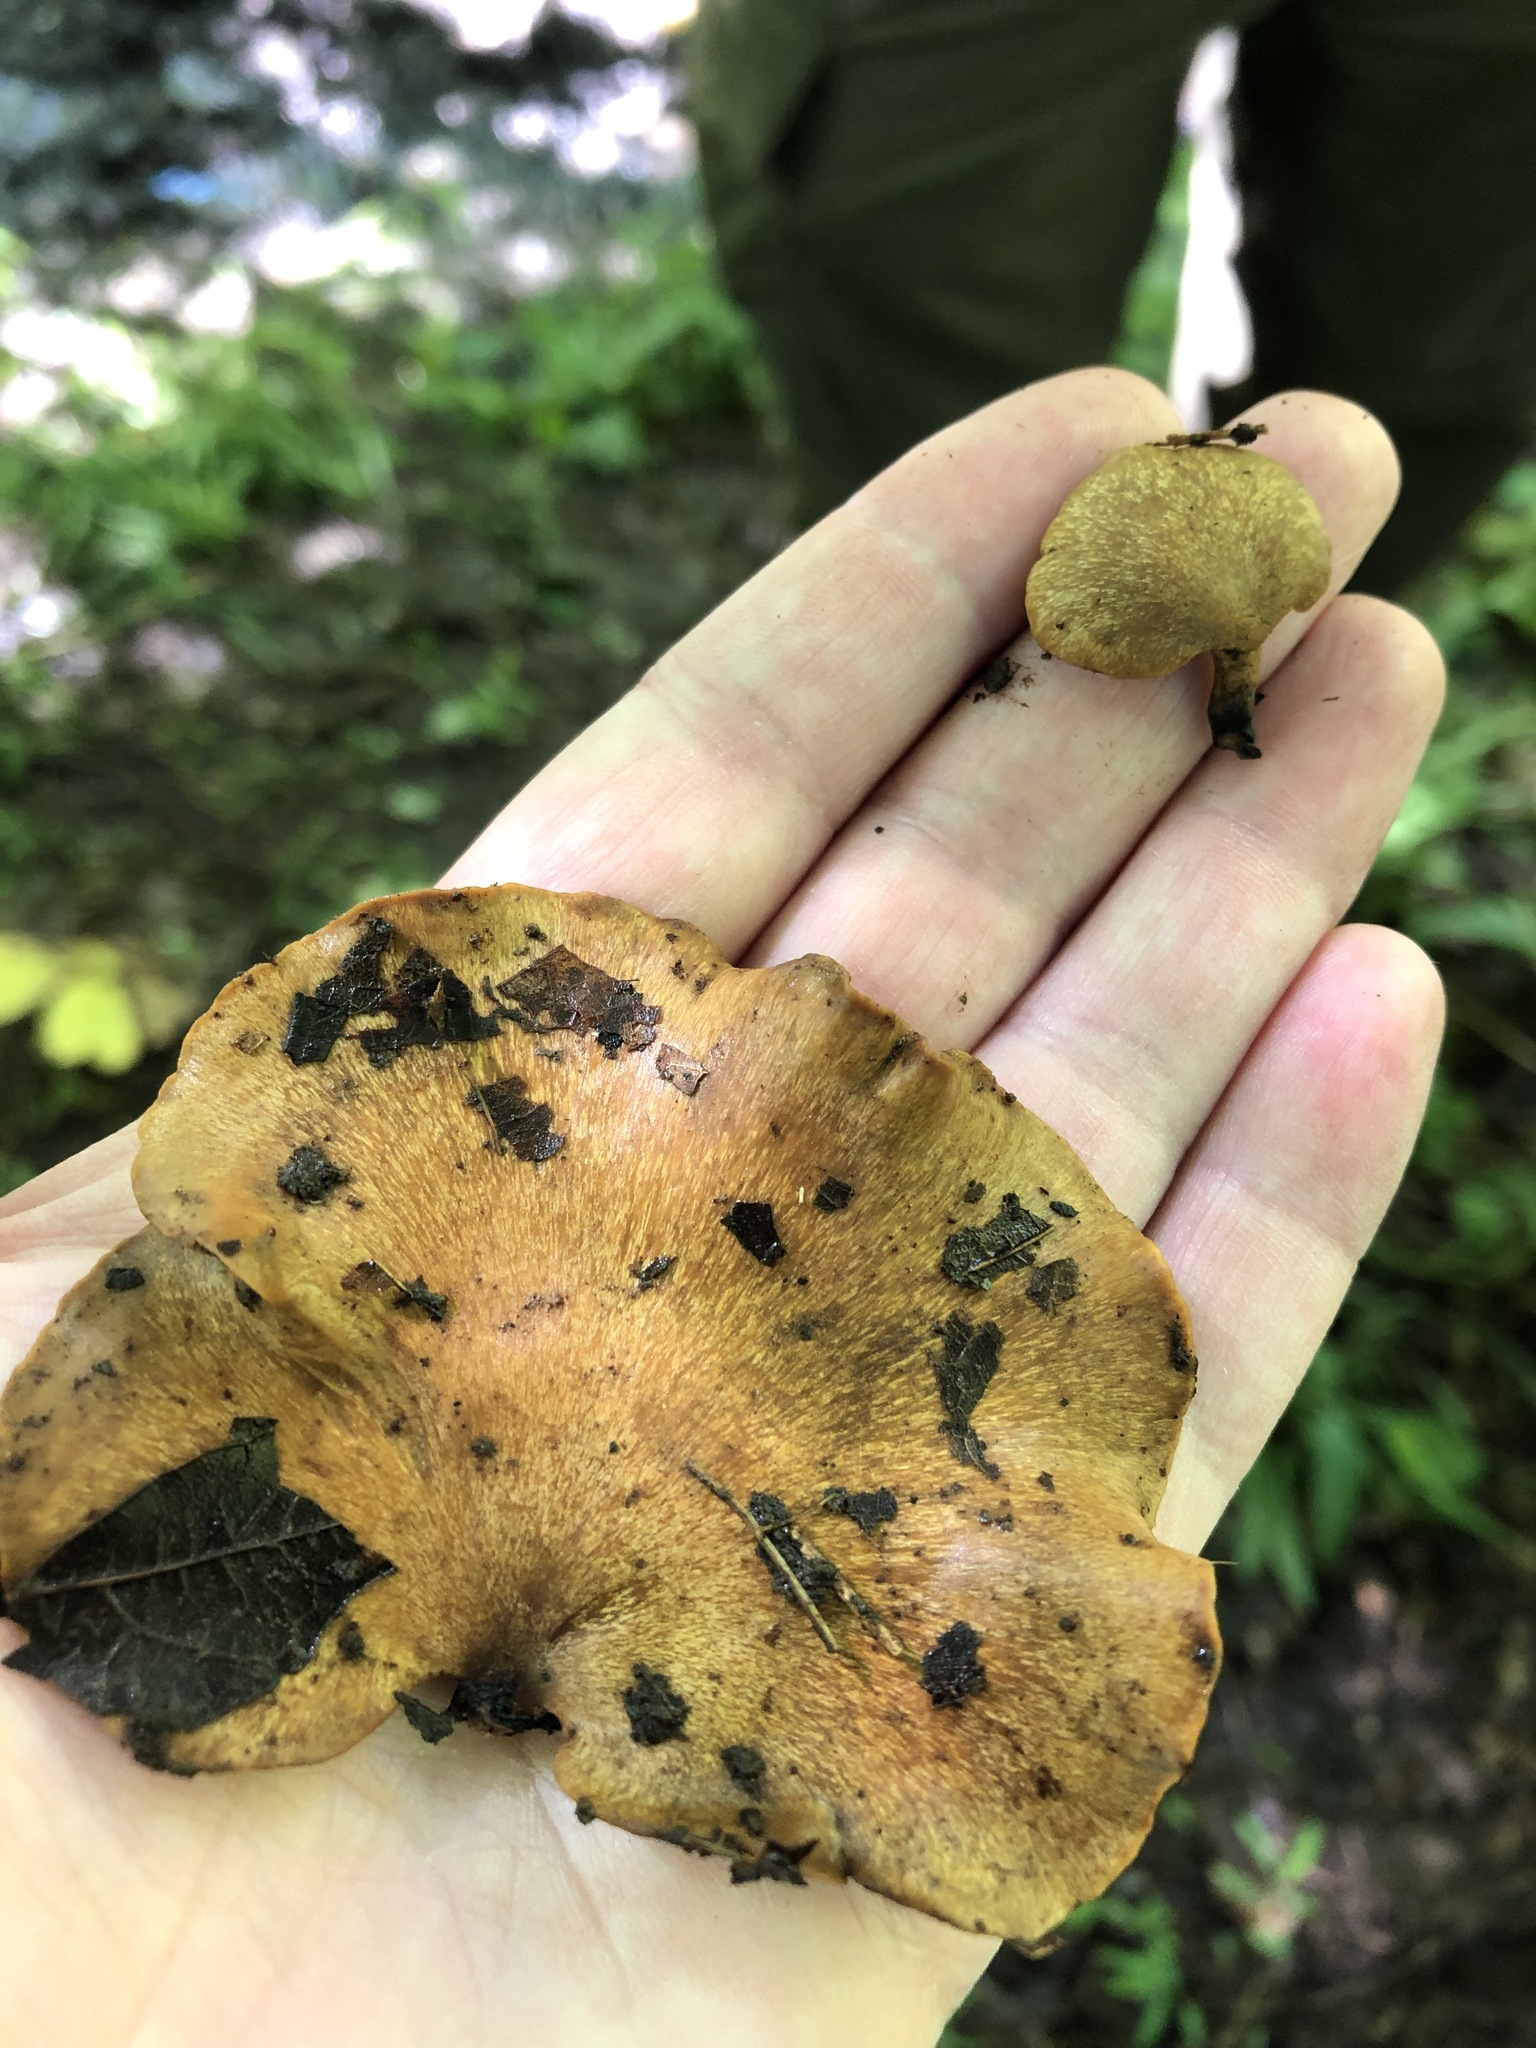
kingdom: Fungi
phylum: Basidiomycota
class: Agaricomycetes
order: Polyporales
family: Polyporaceae
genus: Cerioporus
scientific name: Cerioporus leptocephalus
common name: Blackfoot polypore
